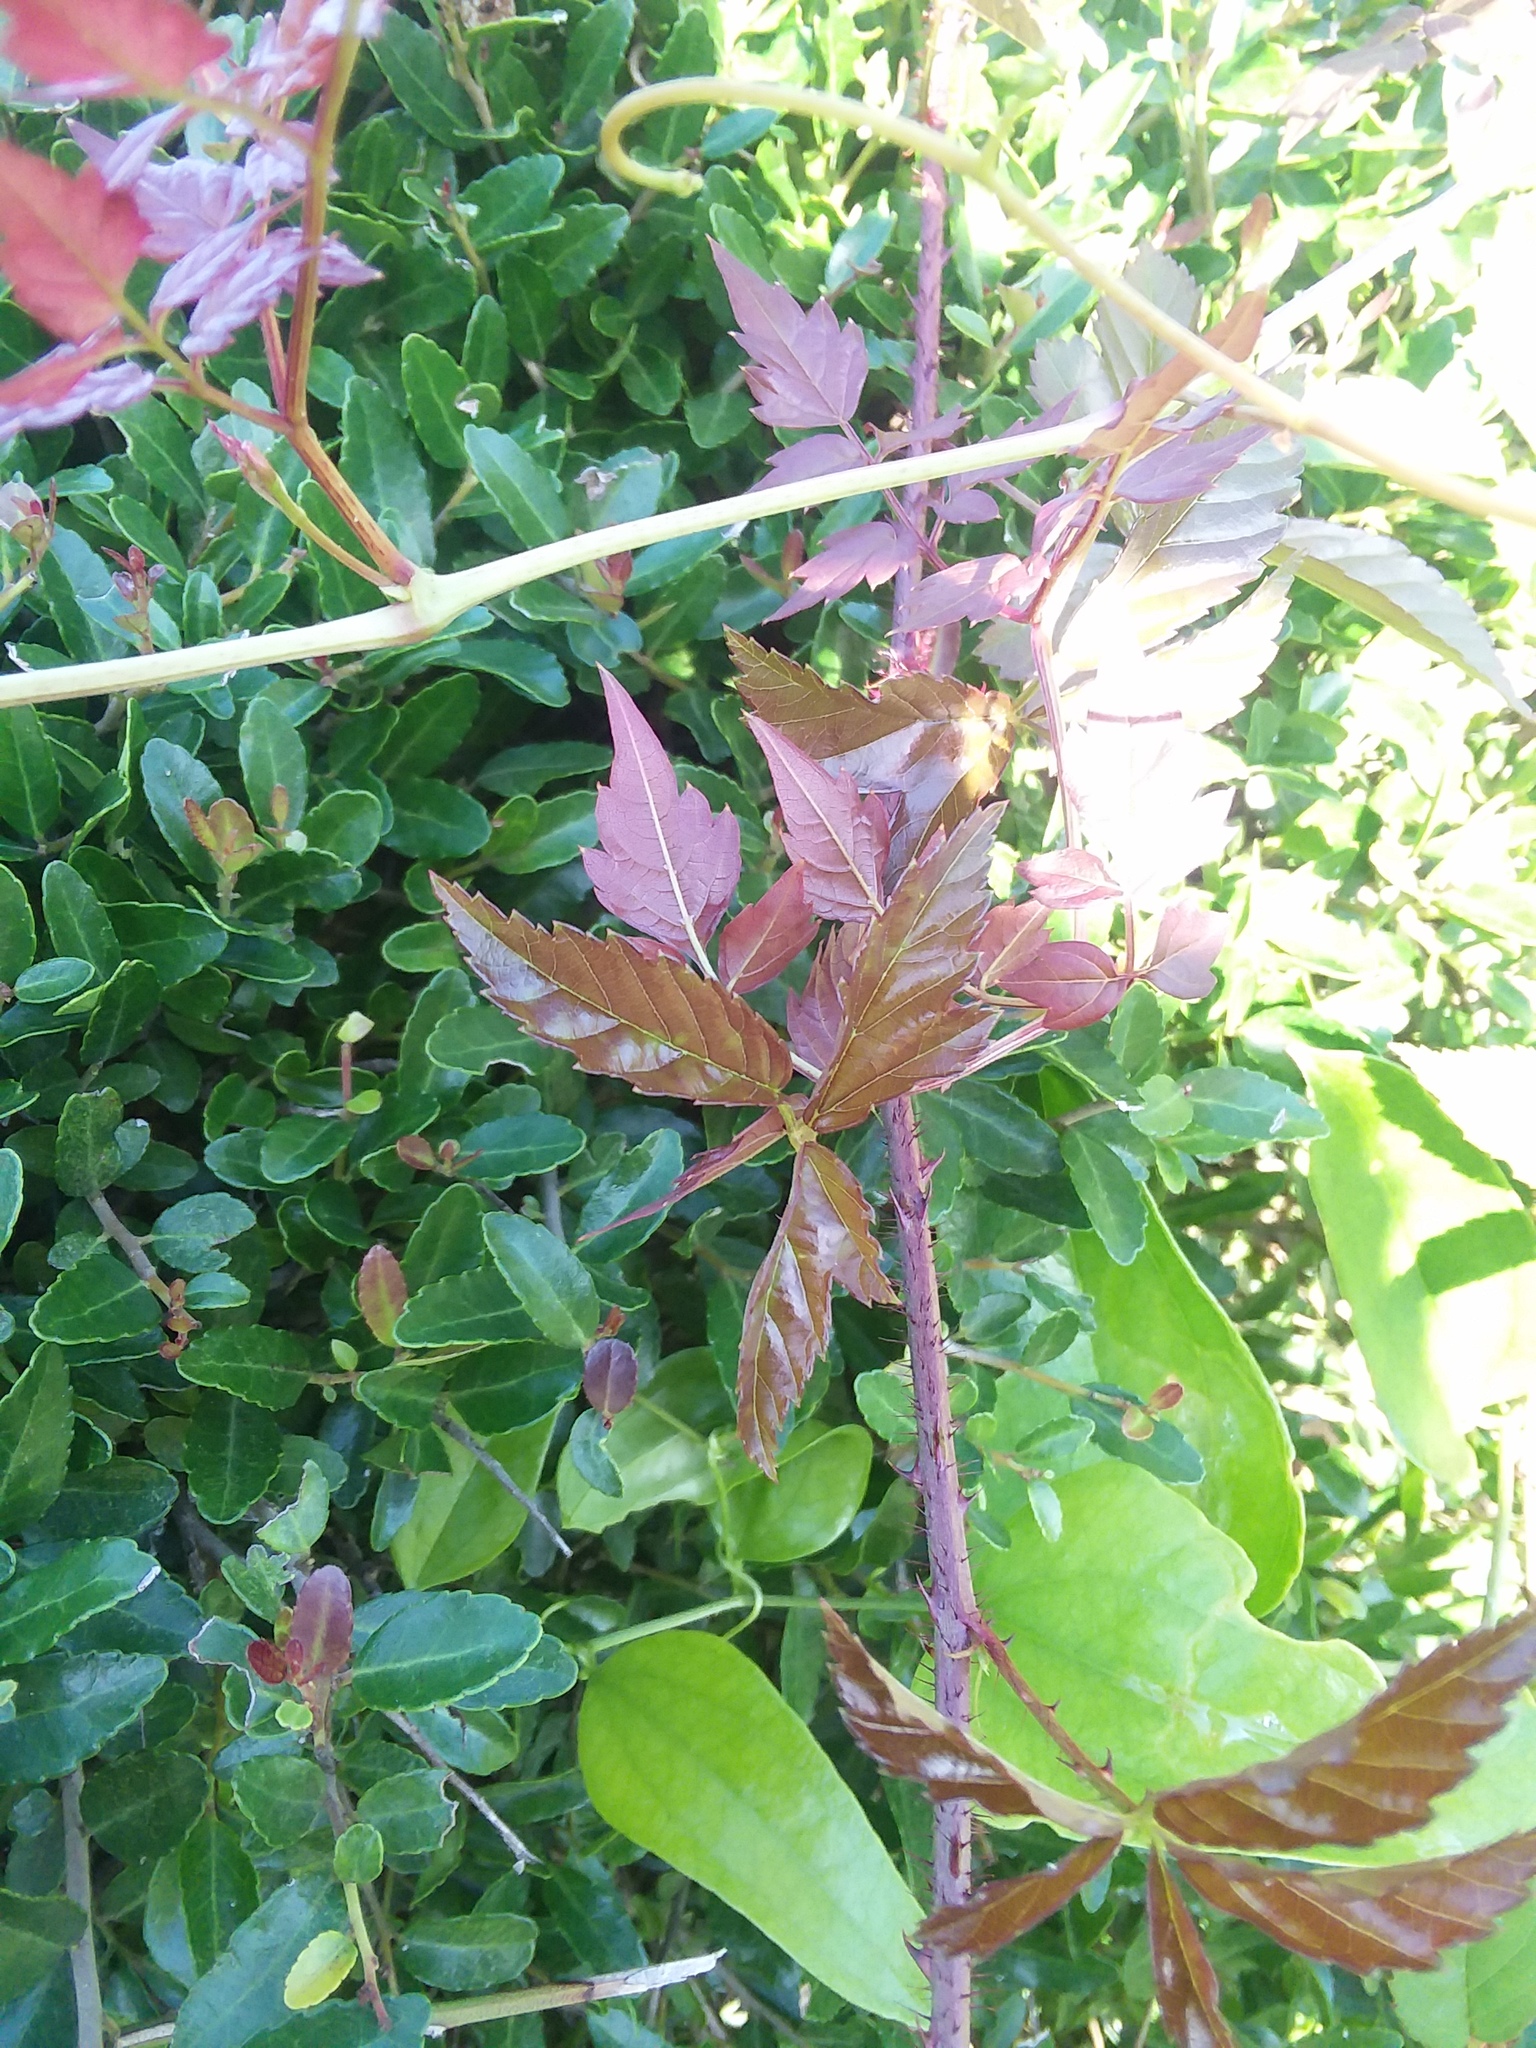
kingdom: Plantae
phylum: Tracheophyta
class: Magnoliopsida
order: Vitales
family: Vitaceae
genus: Nekemias
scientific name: Nekemias arborea
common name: Peppervine
